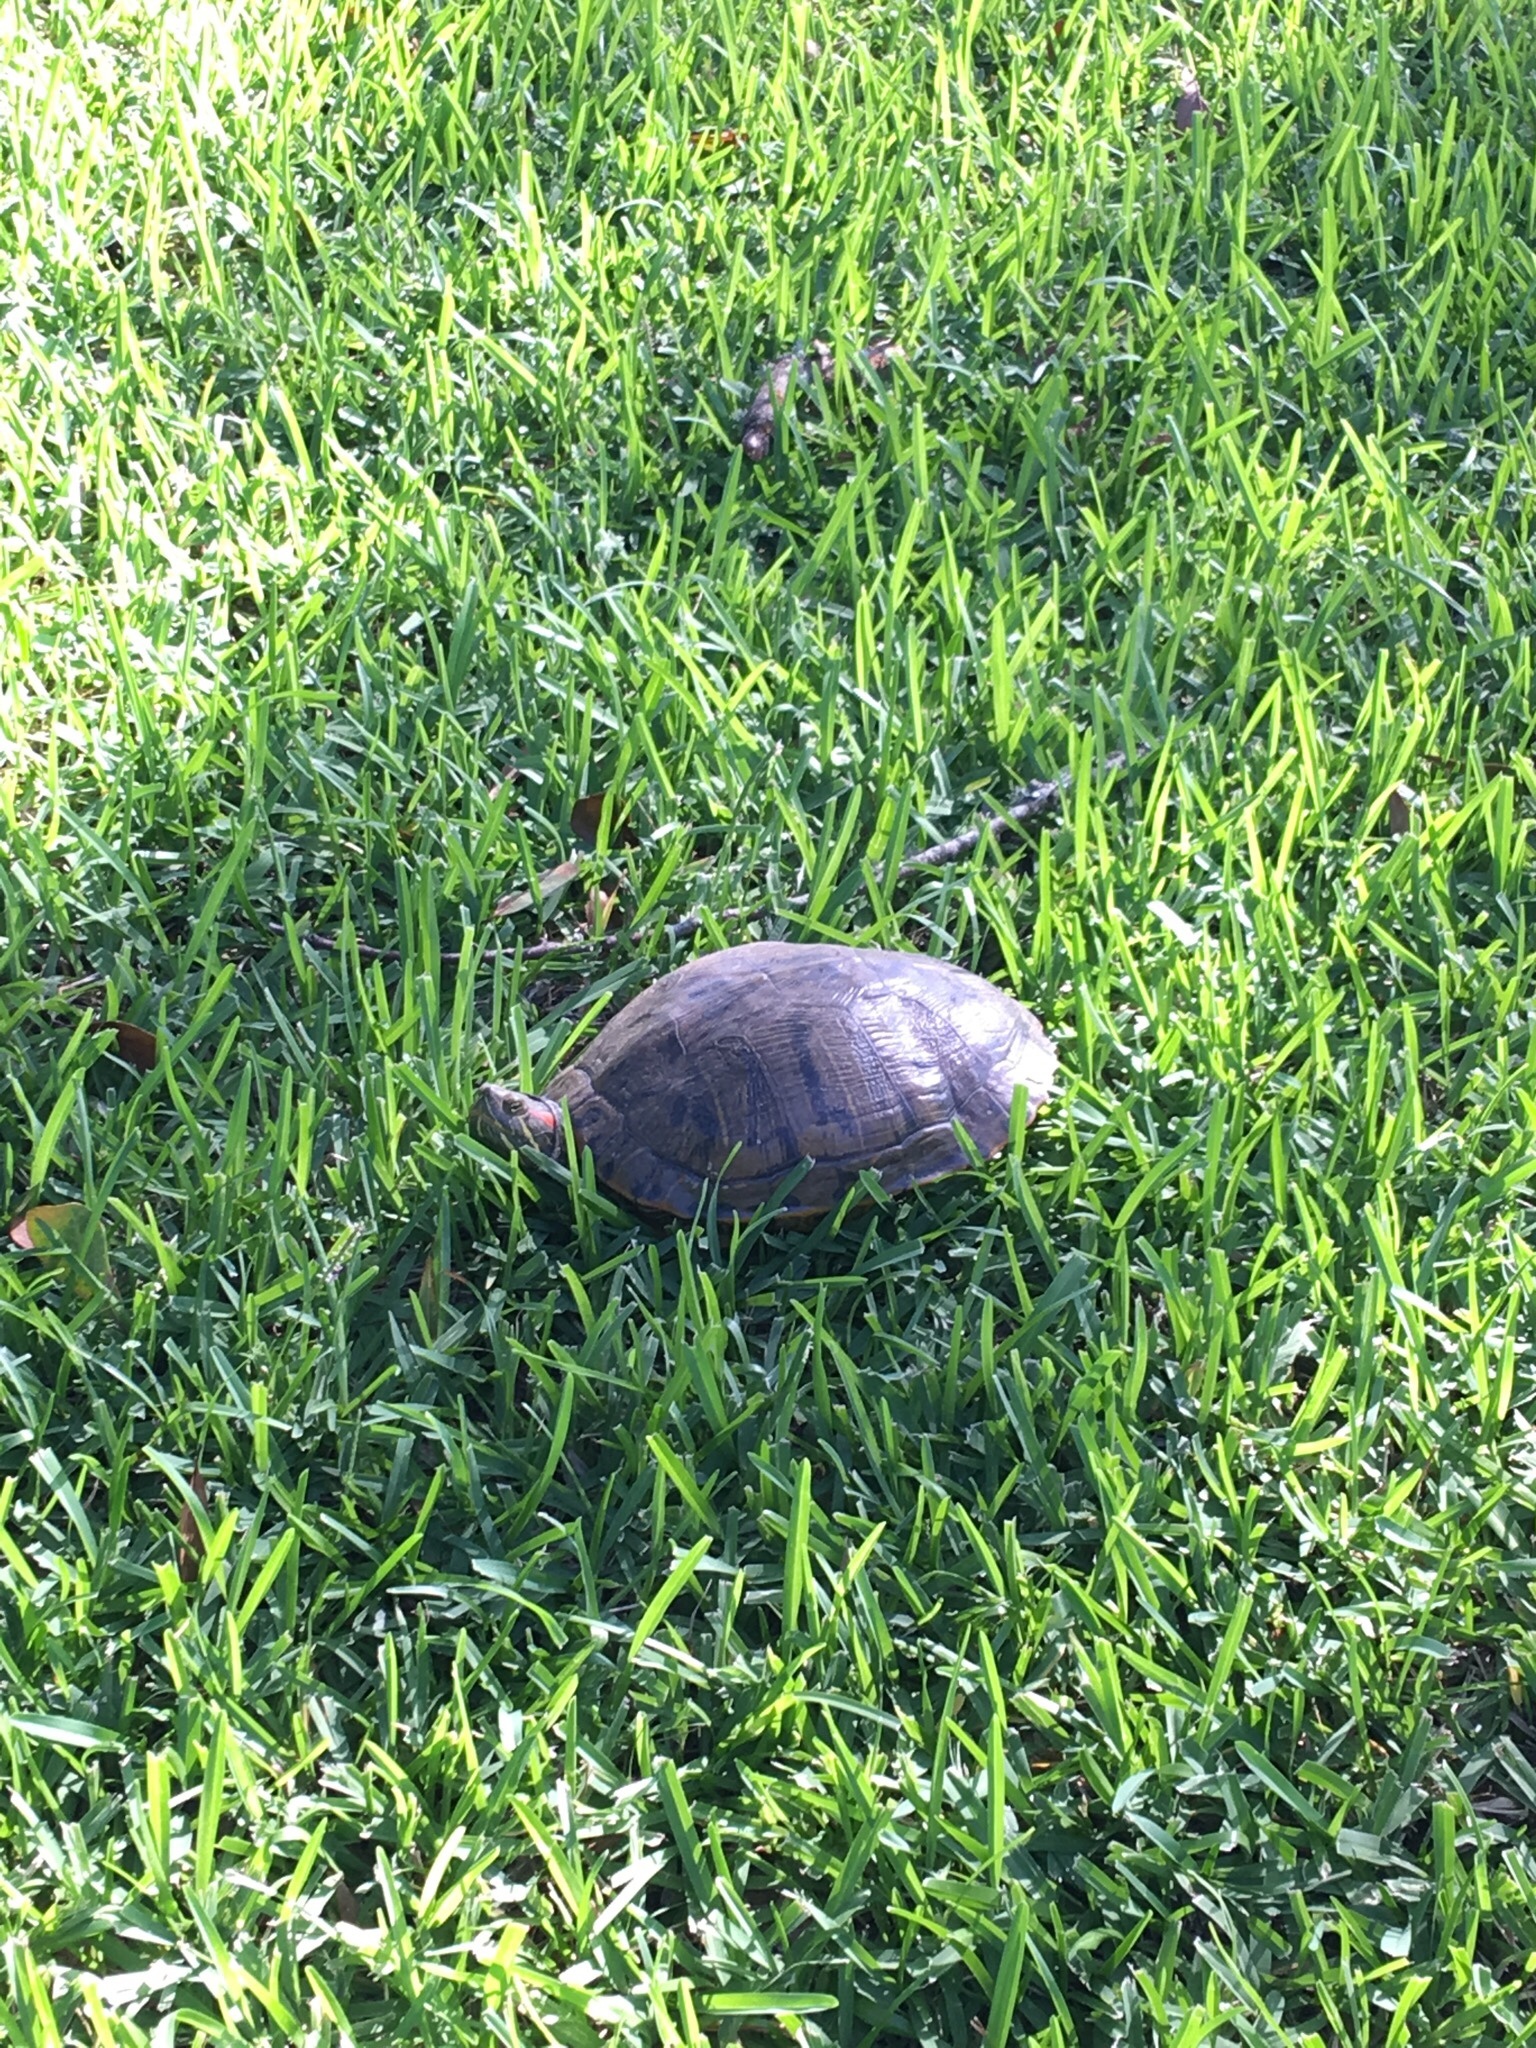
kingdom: Animalia
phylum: Chordata
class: Testudines
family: Emydidae
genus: Trachemys
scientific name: Trachemys scripta
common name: Slider
